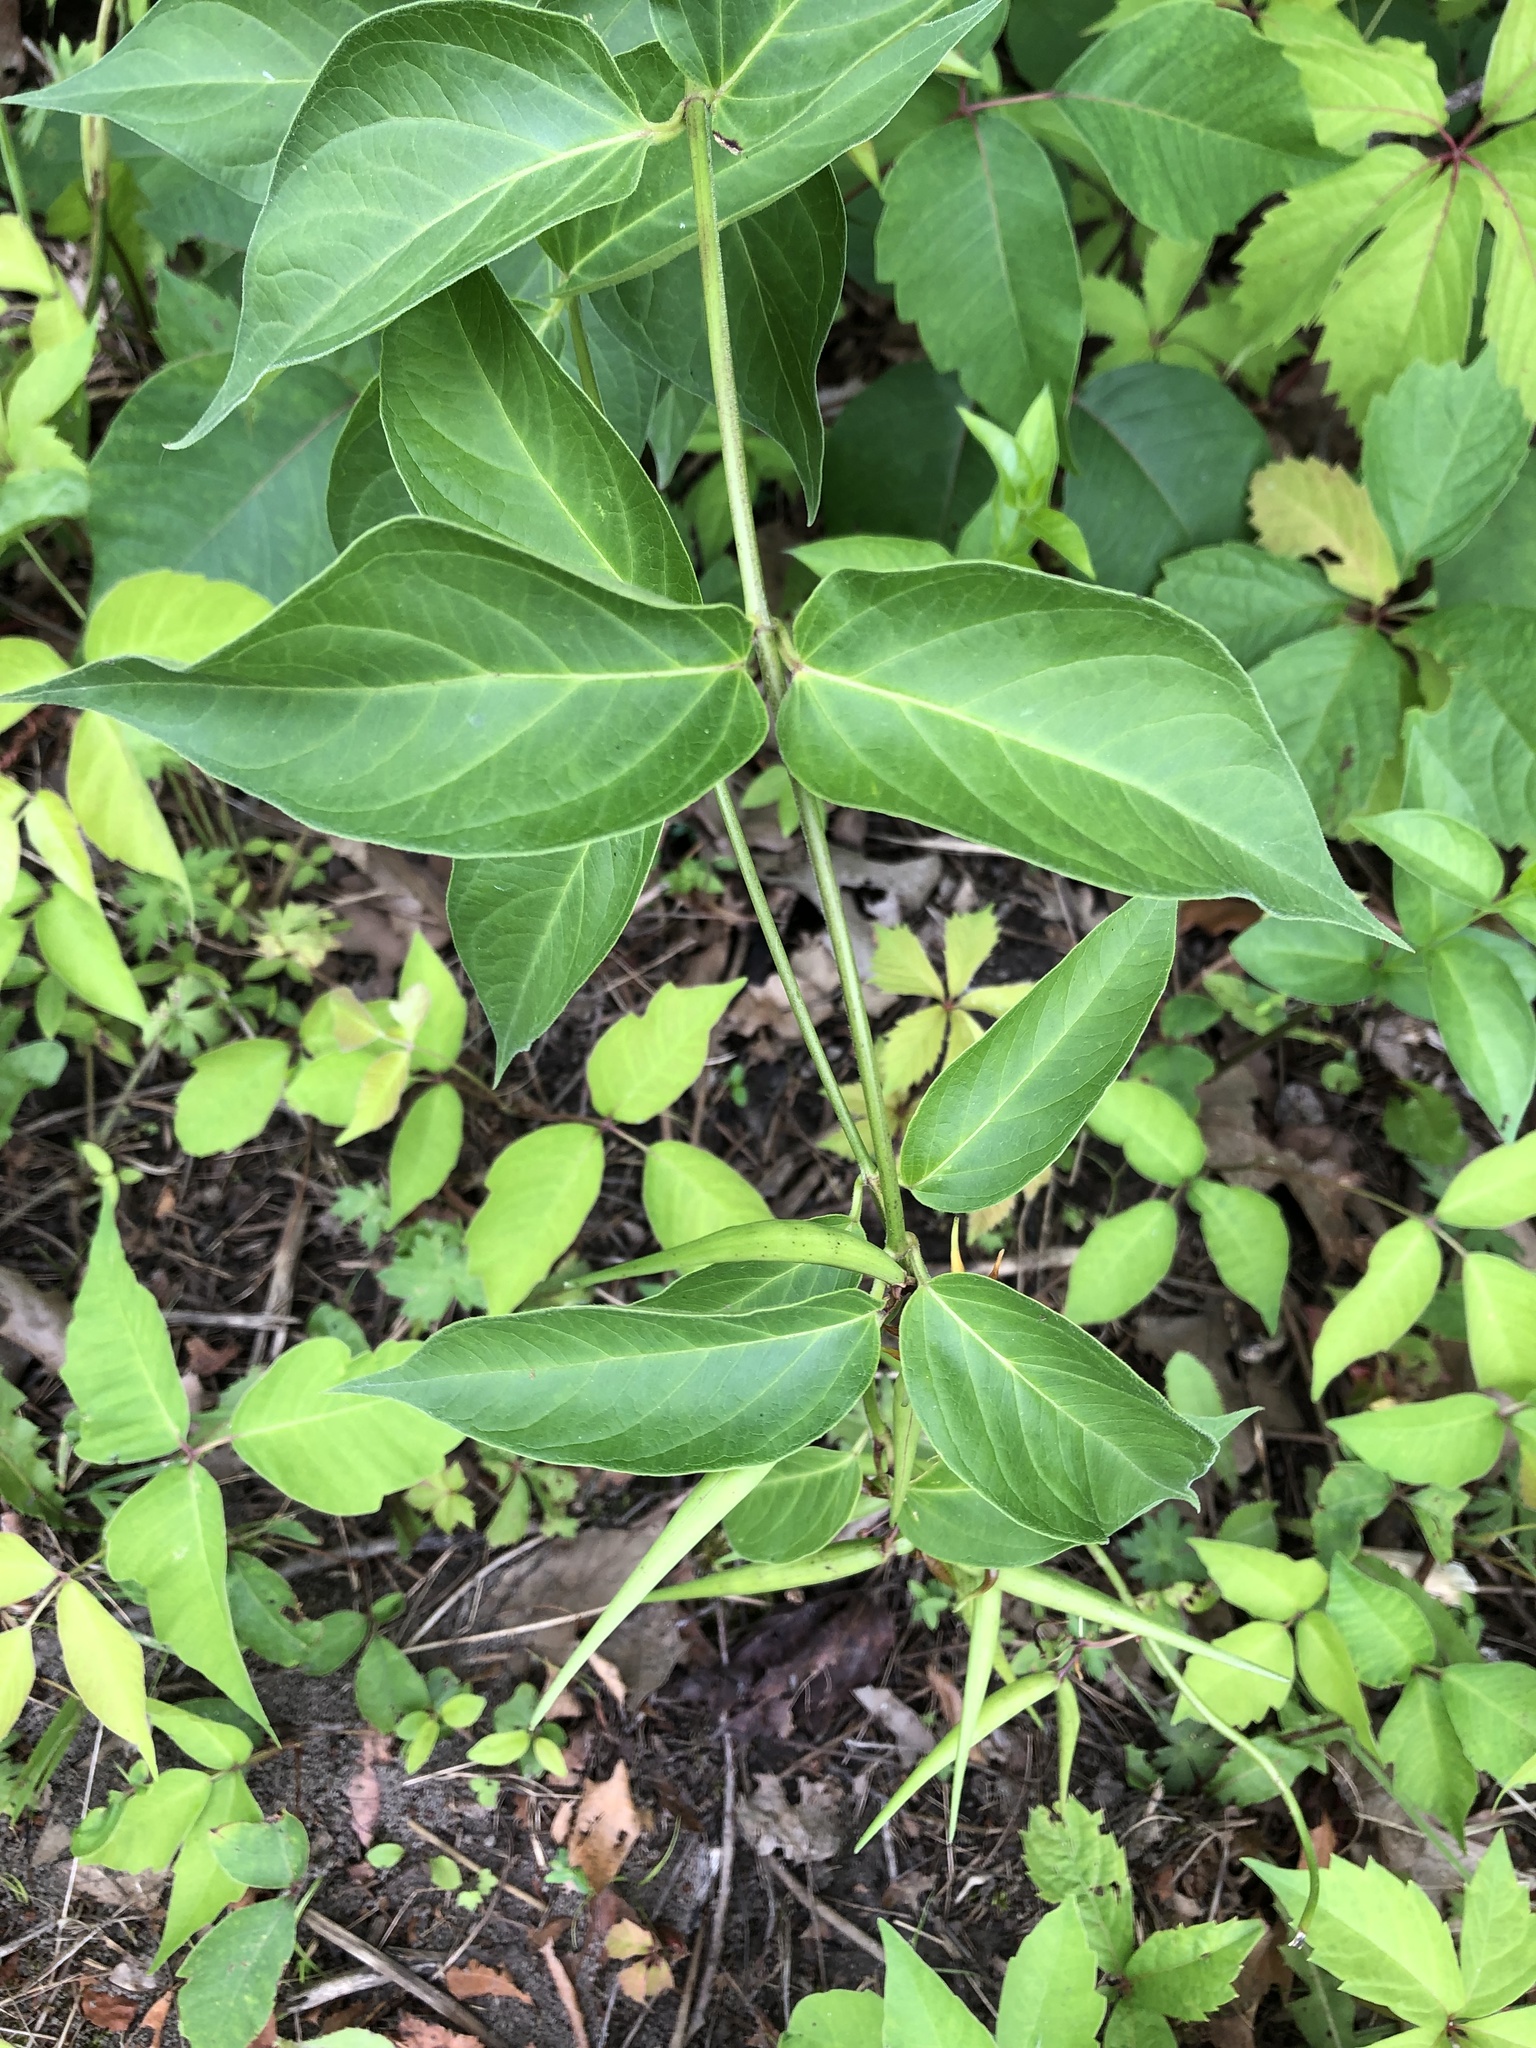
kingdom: Plantae
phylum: Tracheophyta
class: Magnoliopsida
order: Gentianales
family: Apocynaceae
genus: Vincetoxicum
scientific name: Vincetoxicum rossicum
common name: Dog-strangling vine
